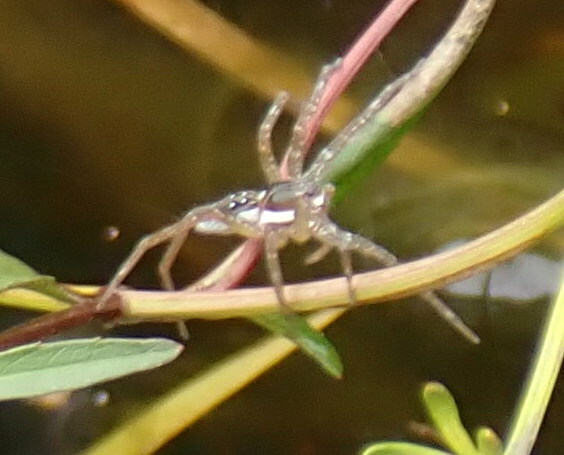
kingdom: Animalia
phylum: Arthropoda
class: Arachnida
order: Araneae
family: Pisauridae
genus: Dolomedes
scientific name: Dolomedes triton
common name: Six-spotted fishing spider
